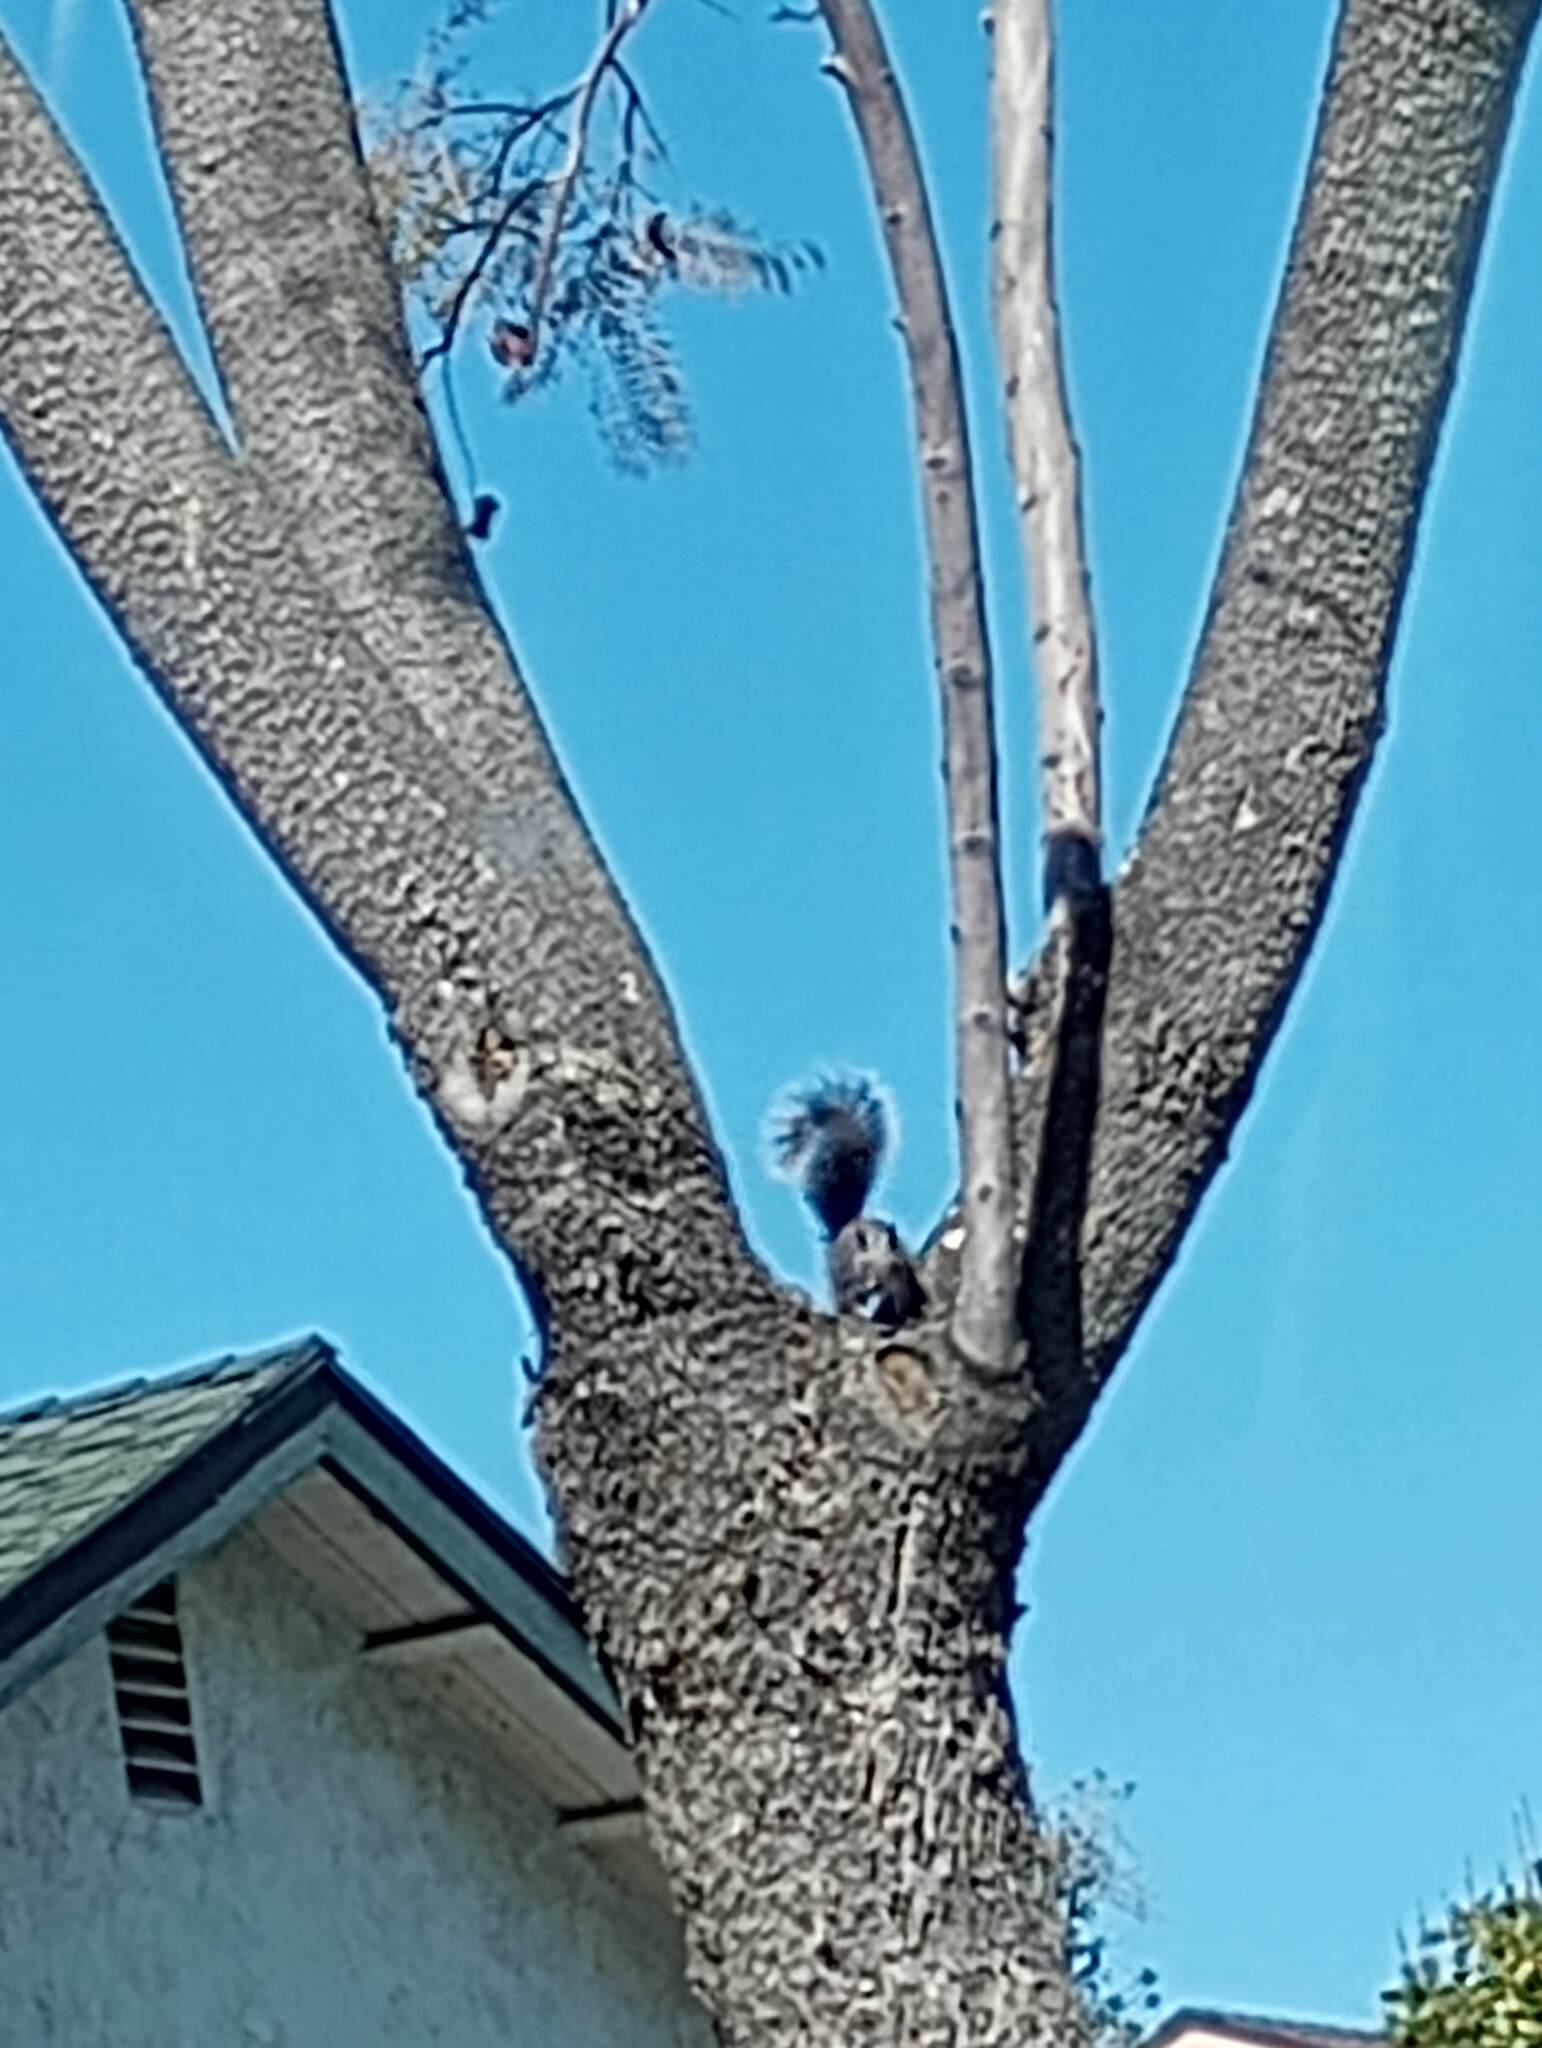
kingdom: Animalia
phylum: Chordata
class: Mammalia
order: Rodentia
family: Sciuridae
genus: Sciurus
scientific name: Sciurus griseus
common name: Western gray squirrel
